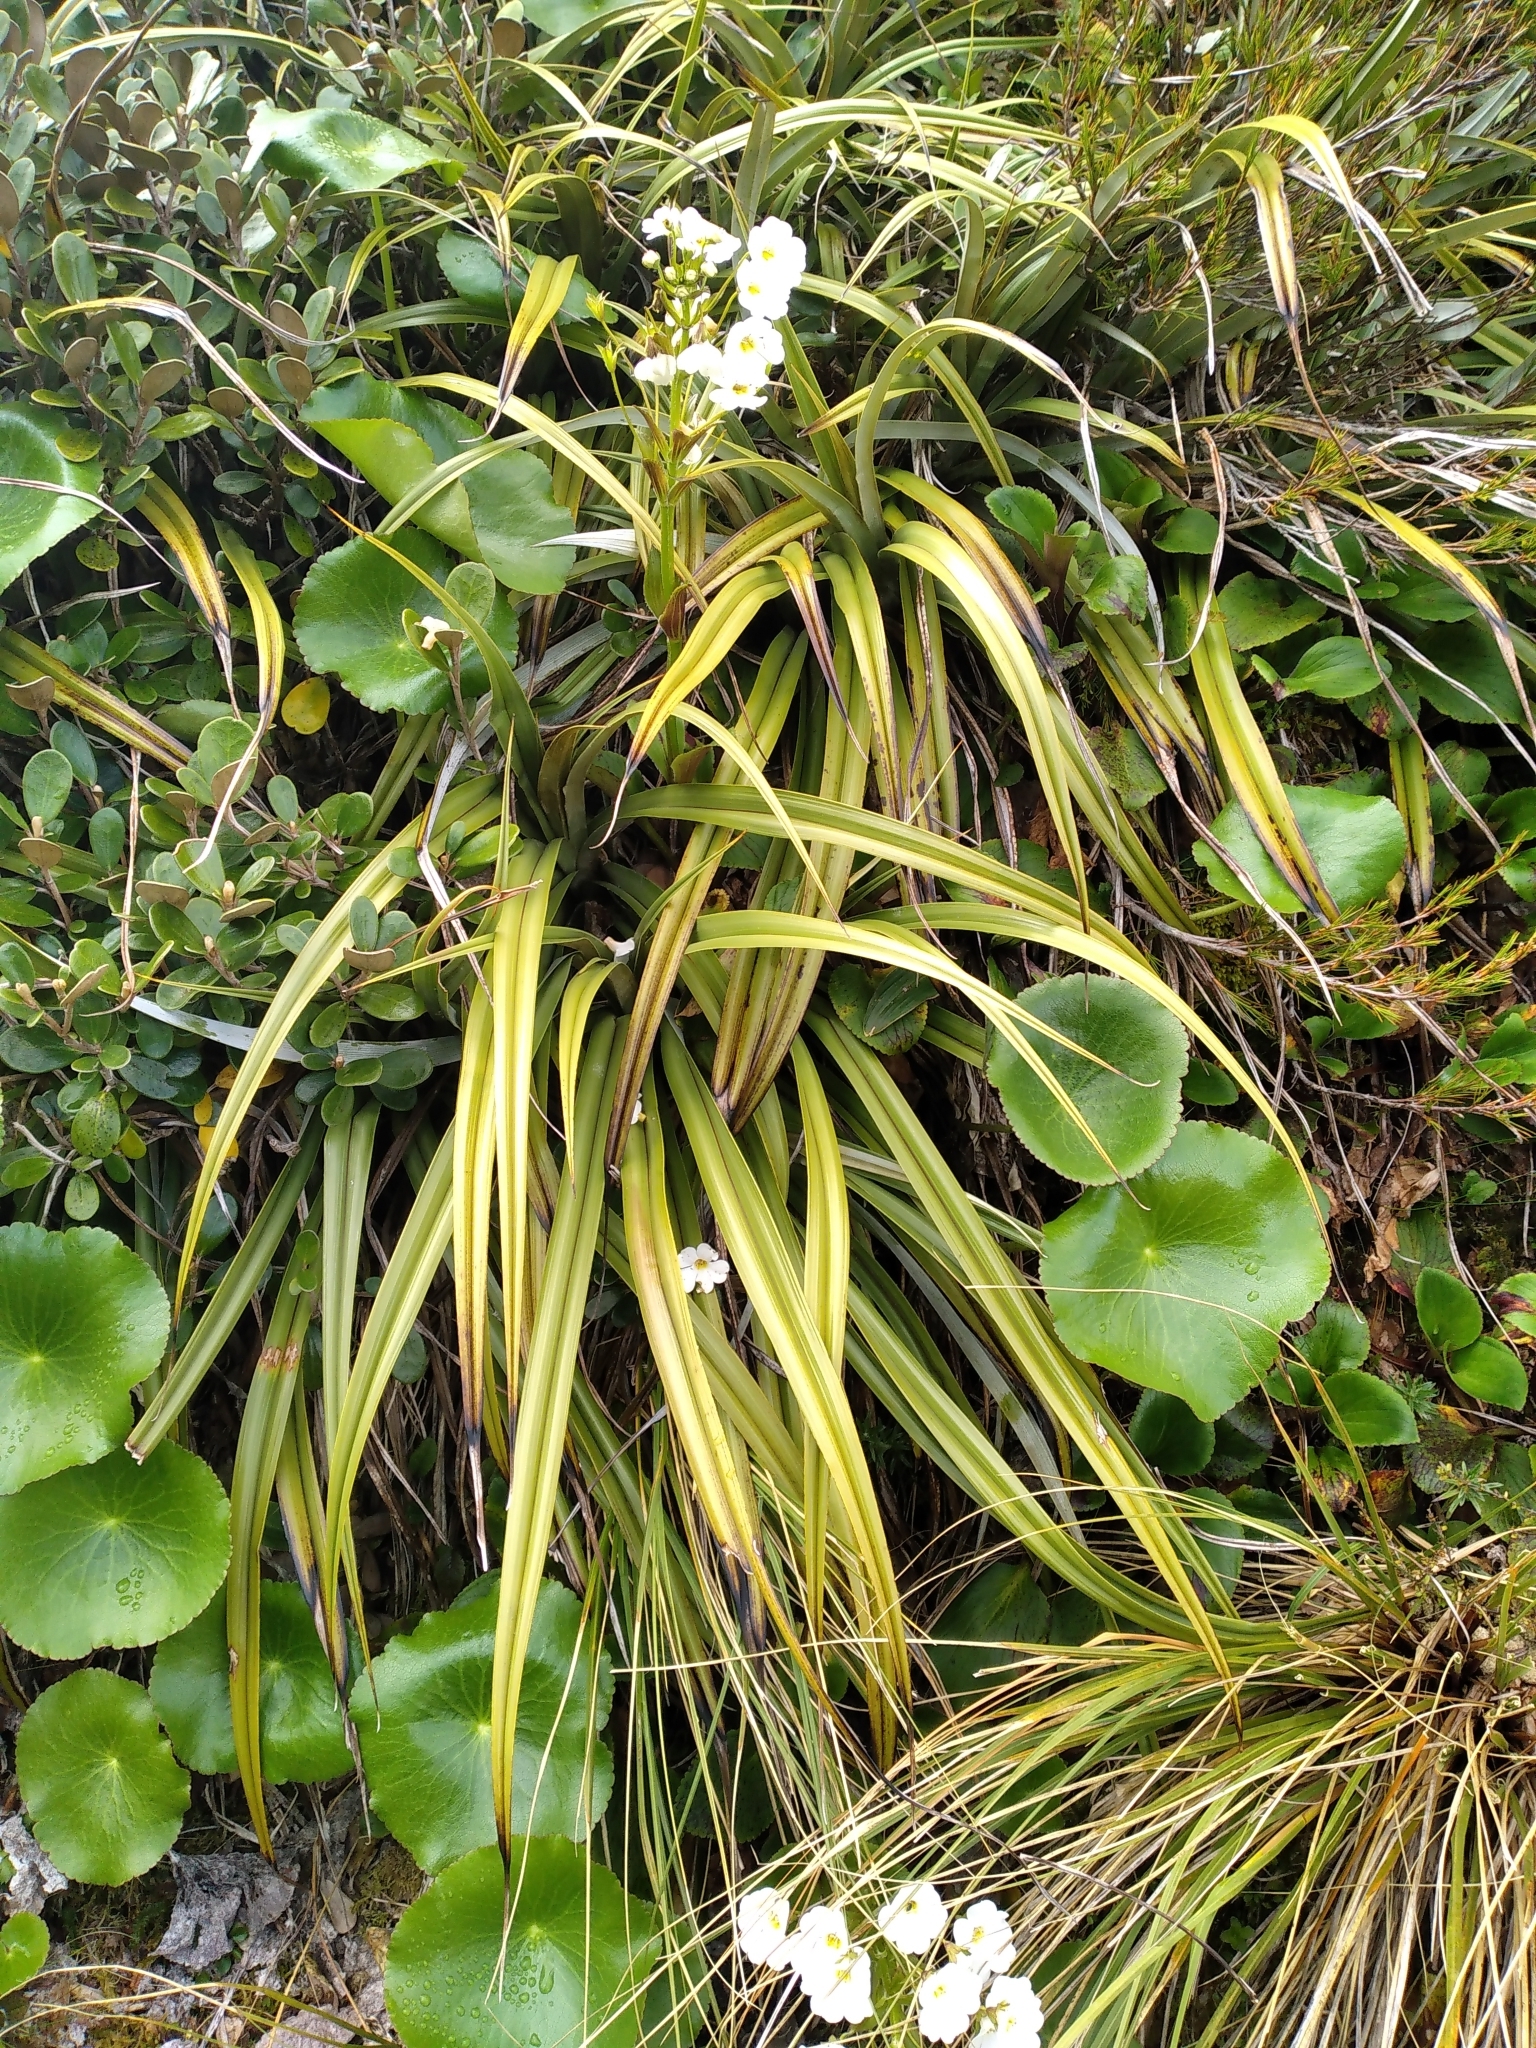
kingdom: Plantae
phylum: Tracheophyta
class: Liliopsida
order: Asparagales
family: Asteliaceae
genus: Astelia
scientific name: Astelia petriei
